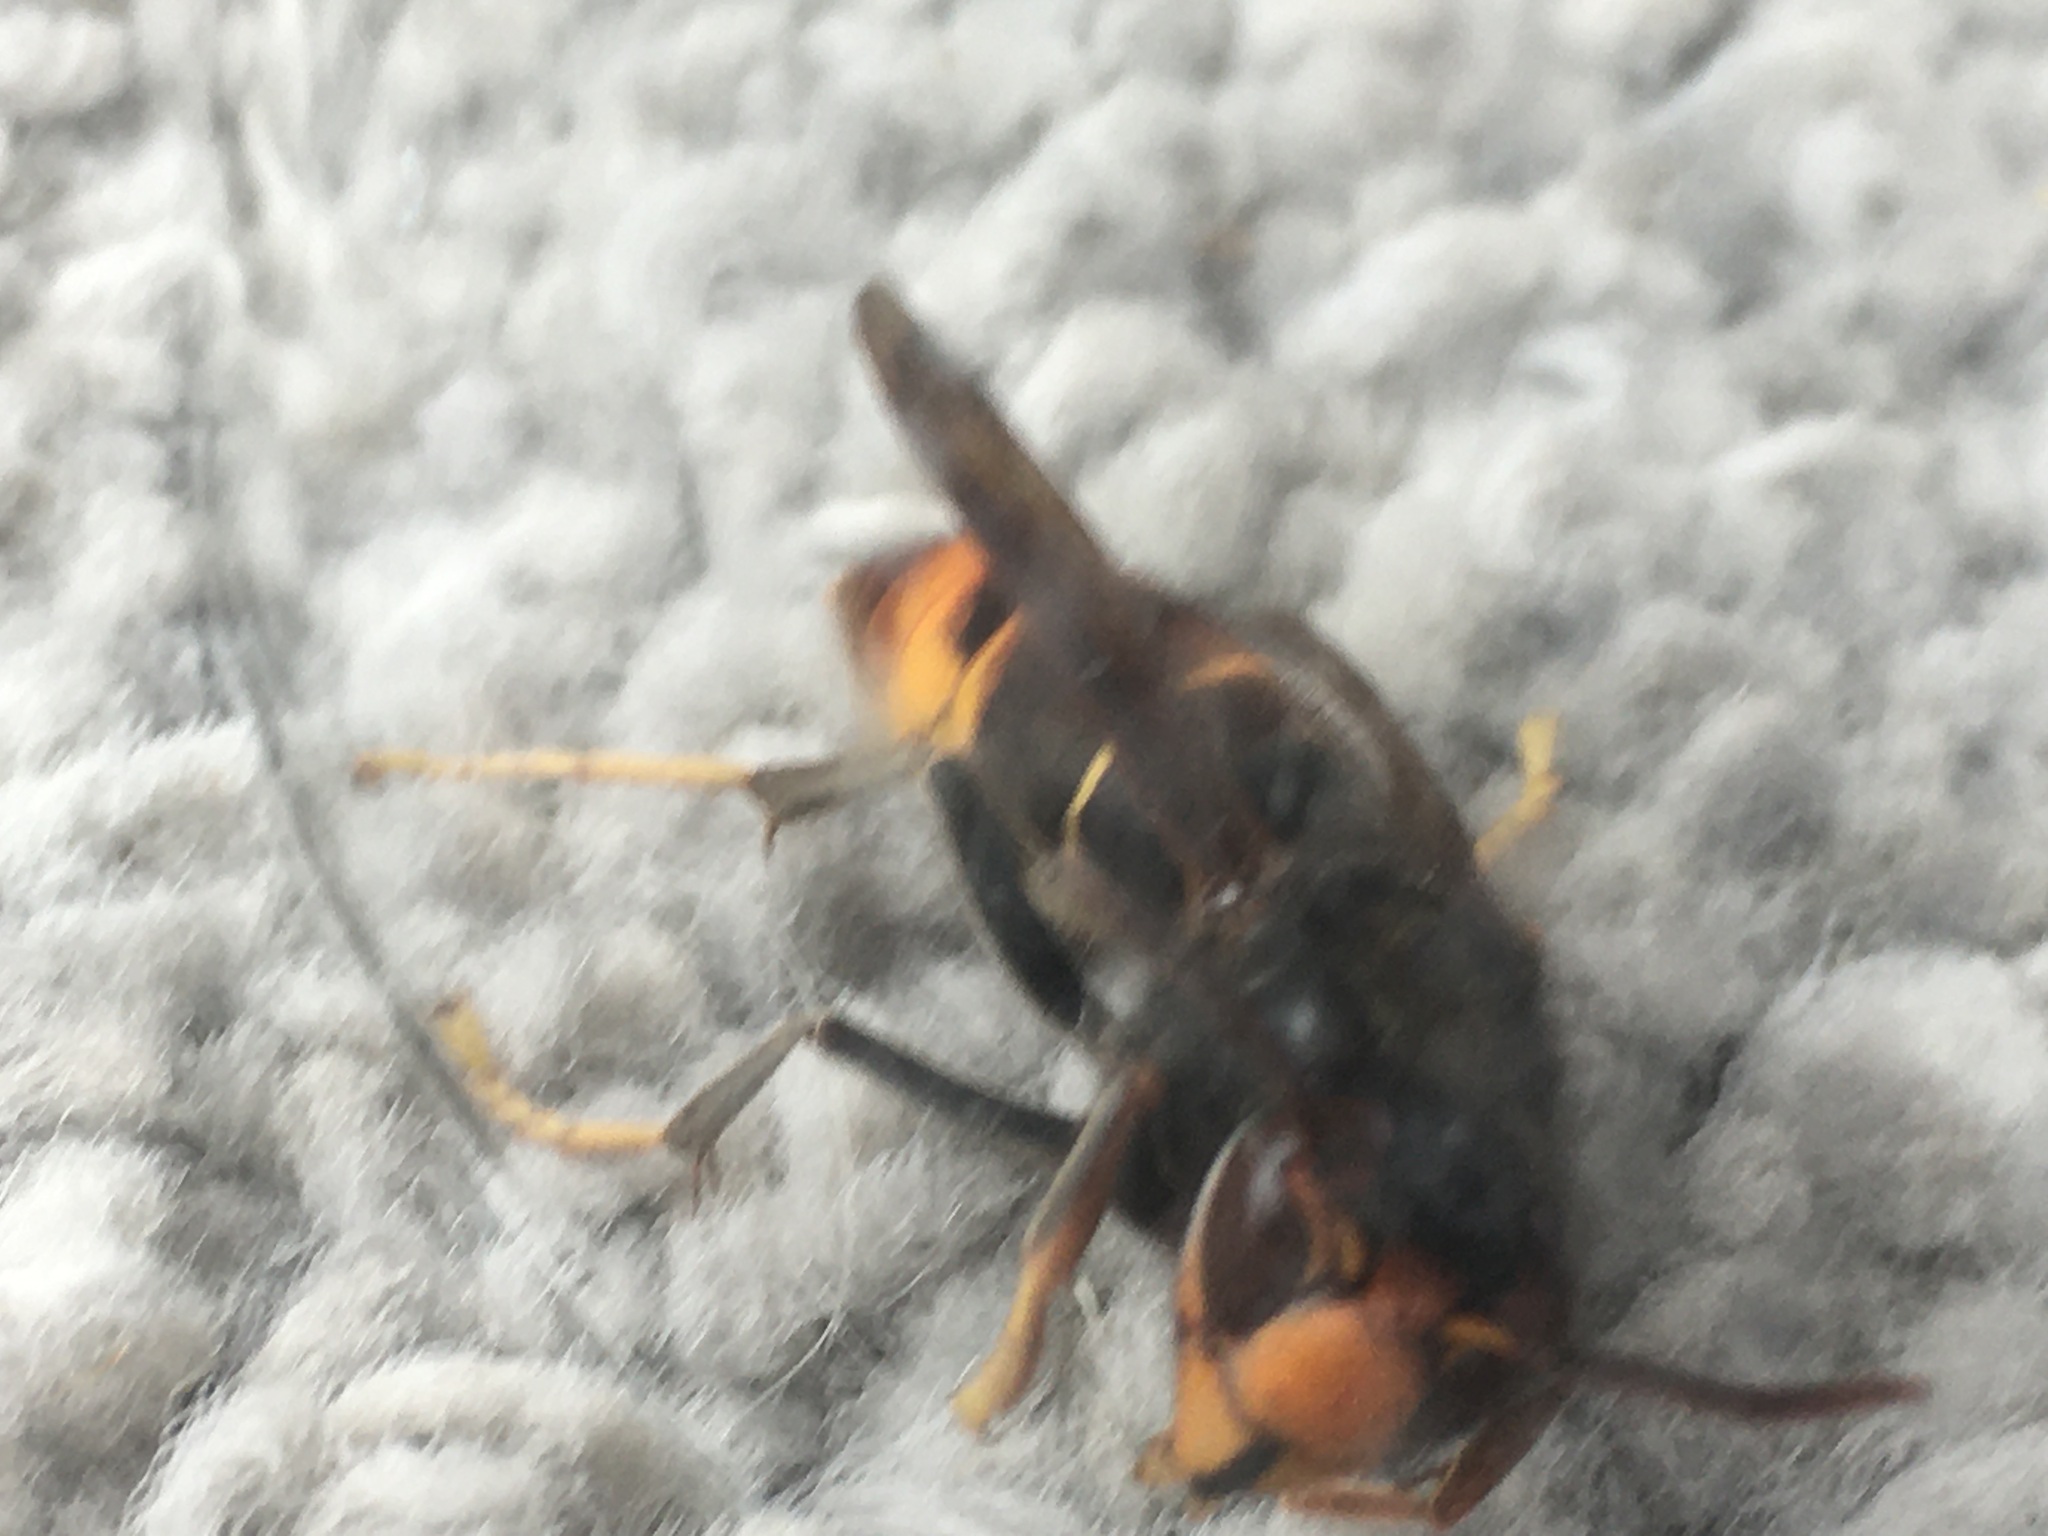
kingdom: Animalia
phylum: Arthropoda
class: Insecta
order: Hymenoptera
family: Vespidae
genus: Vespa
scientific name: Vespa velutina
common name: Asian hornet
